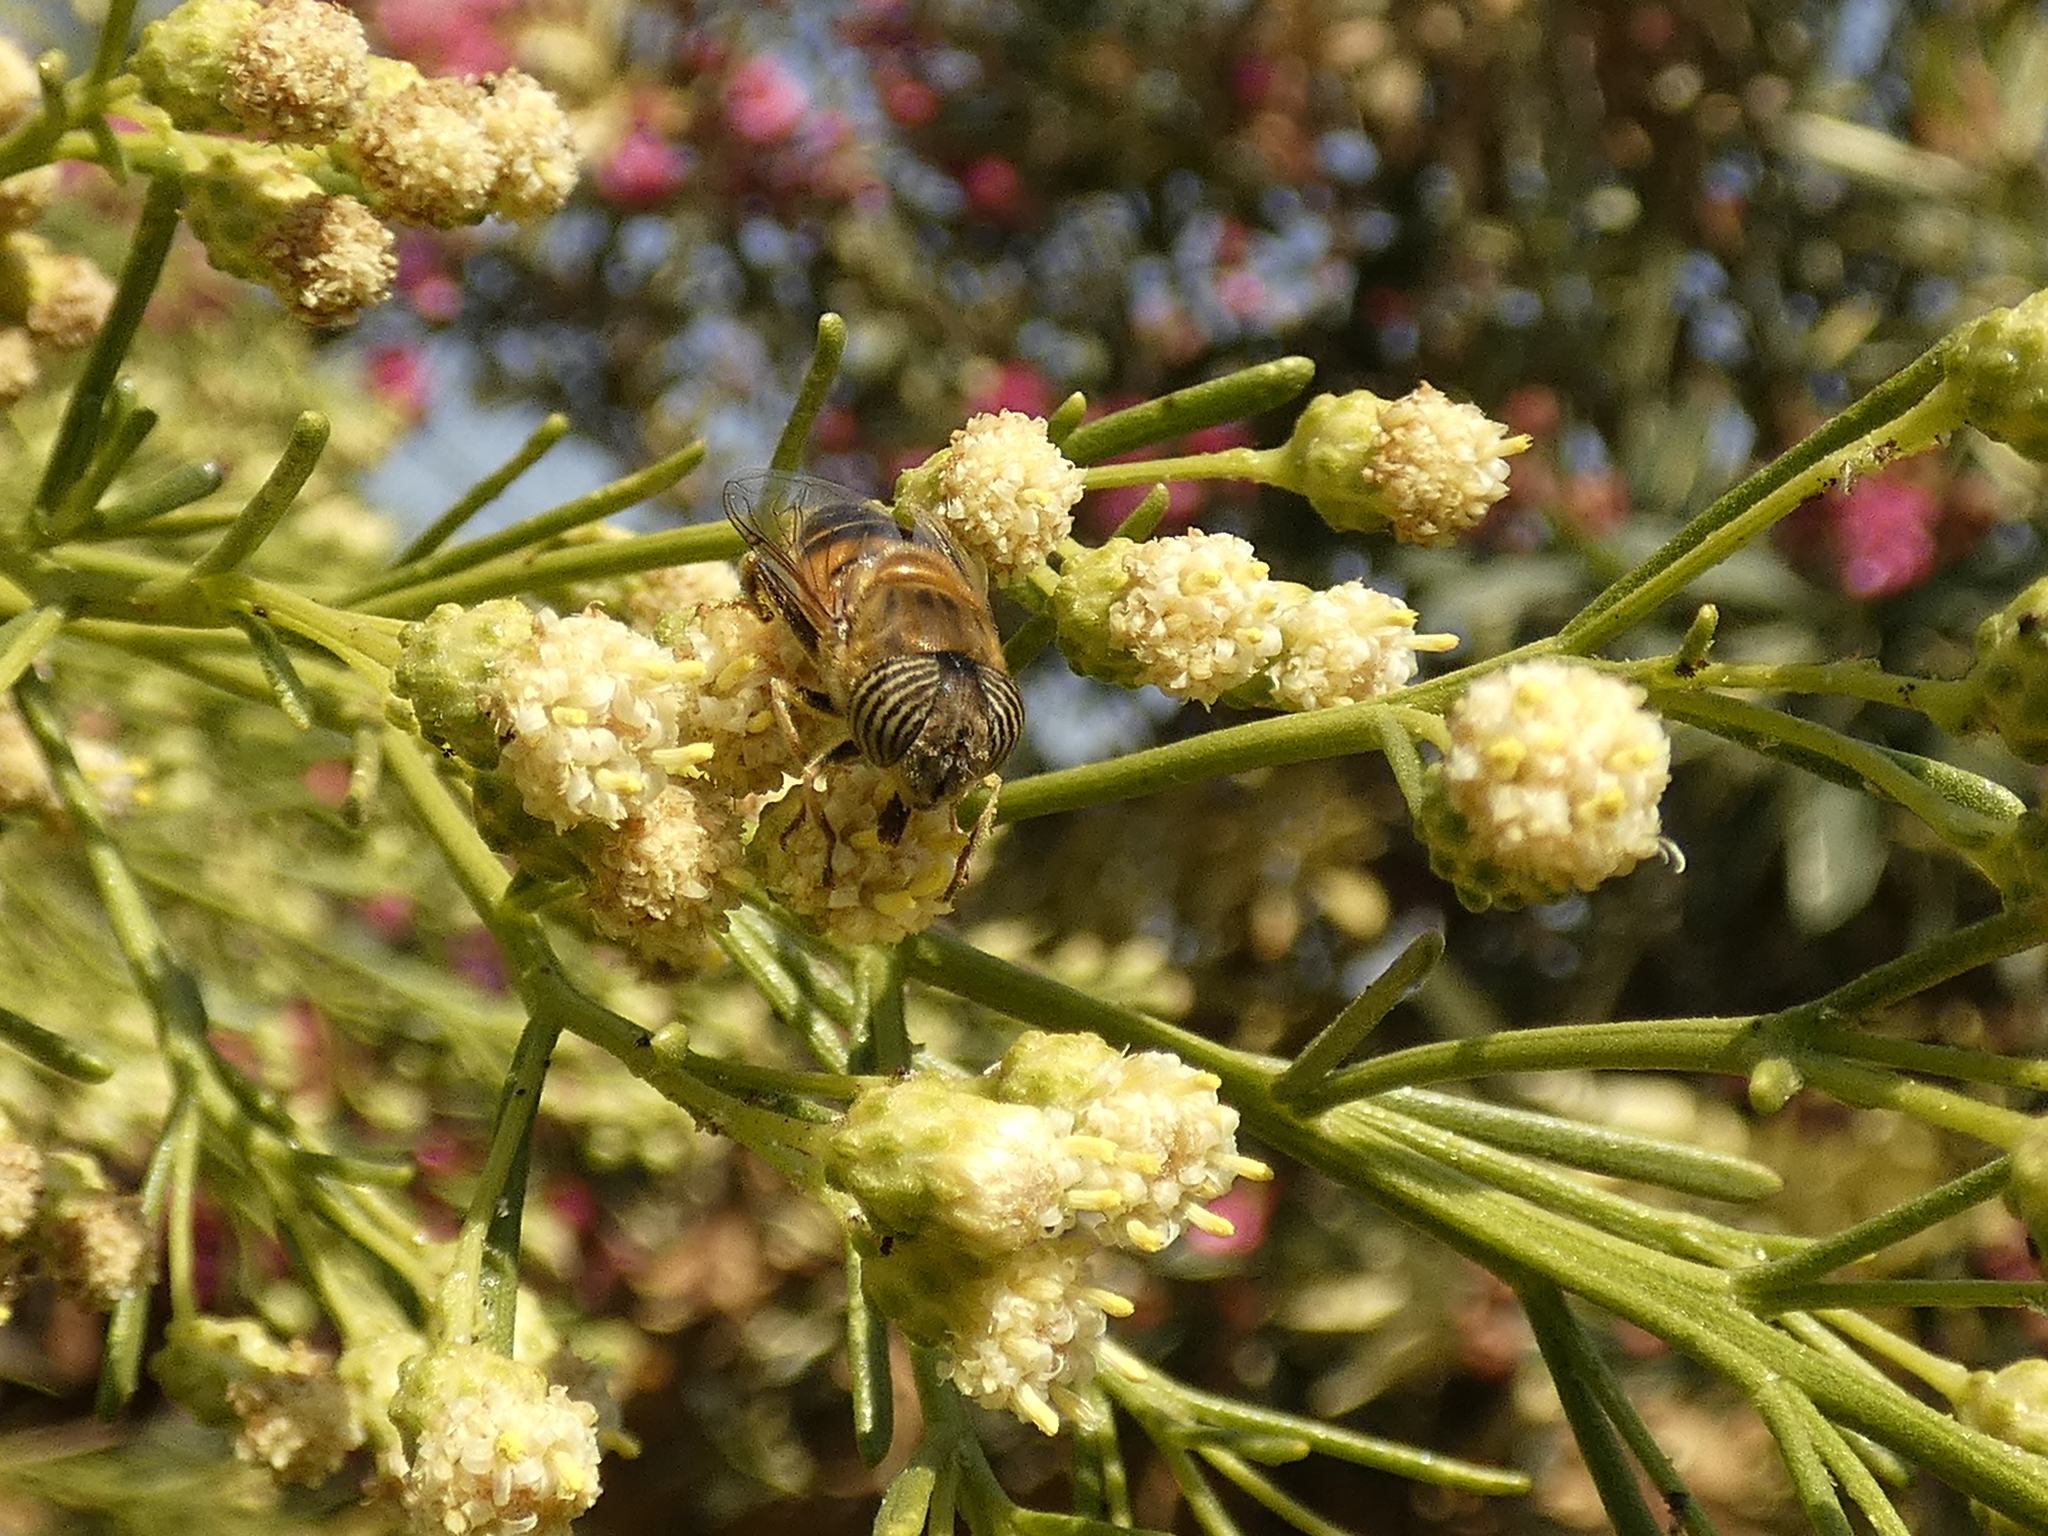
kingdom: Animalia
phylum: Arthropoda
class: Insecta
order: Diptera
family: Syrphidae
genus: Eristalinus
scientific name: Eristalinus taeniops
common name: Syrphid fly
